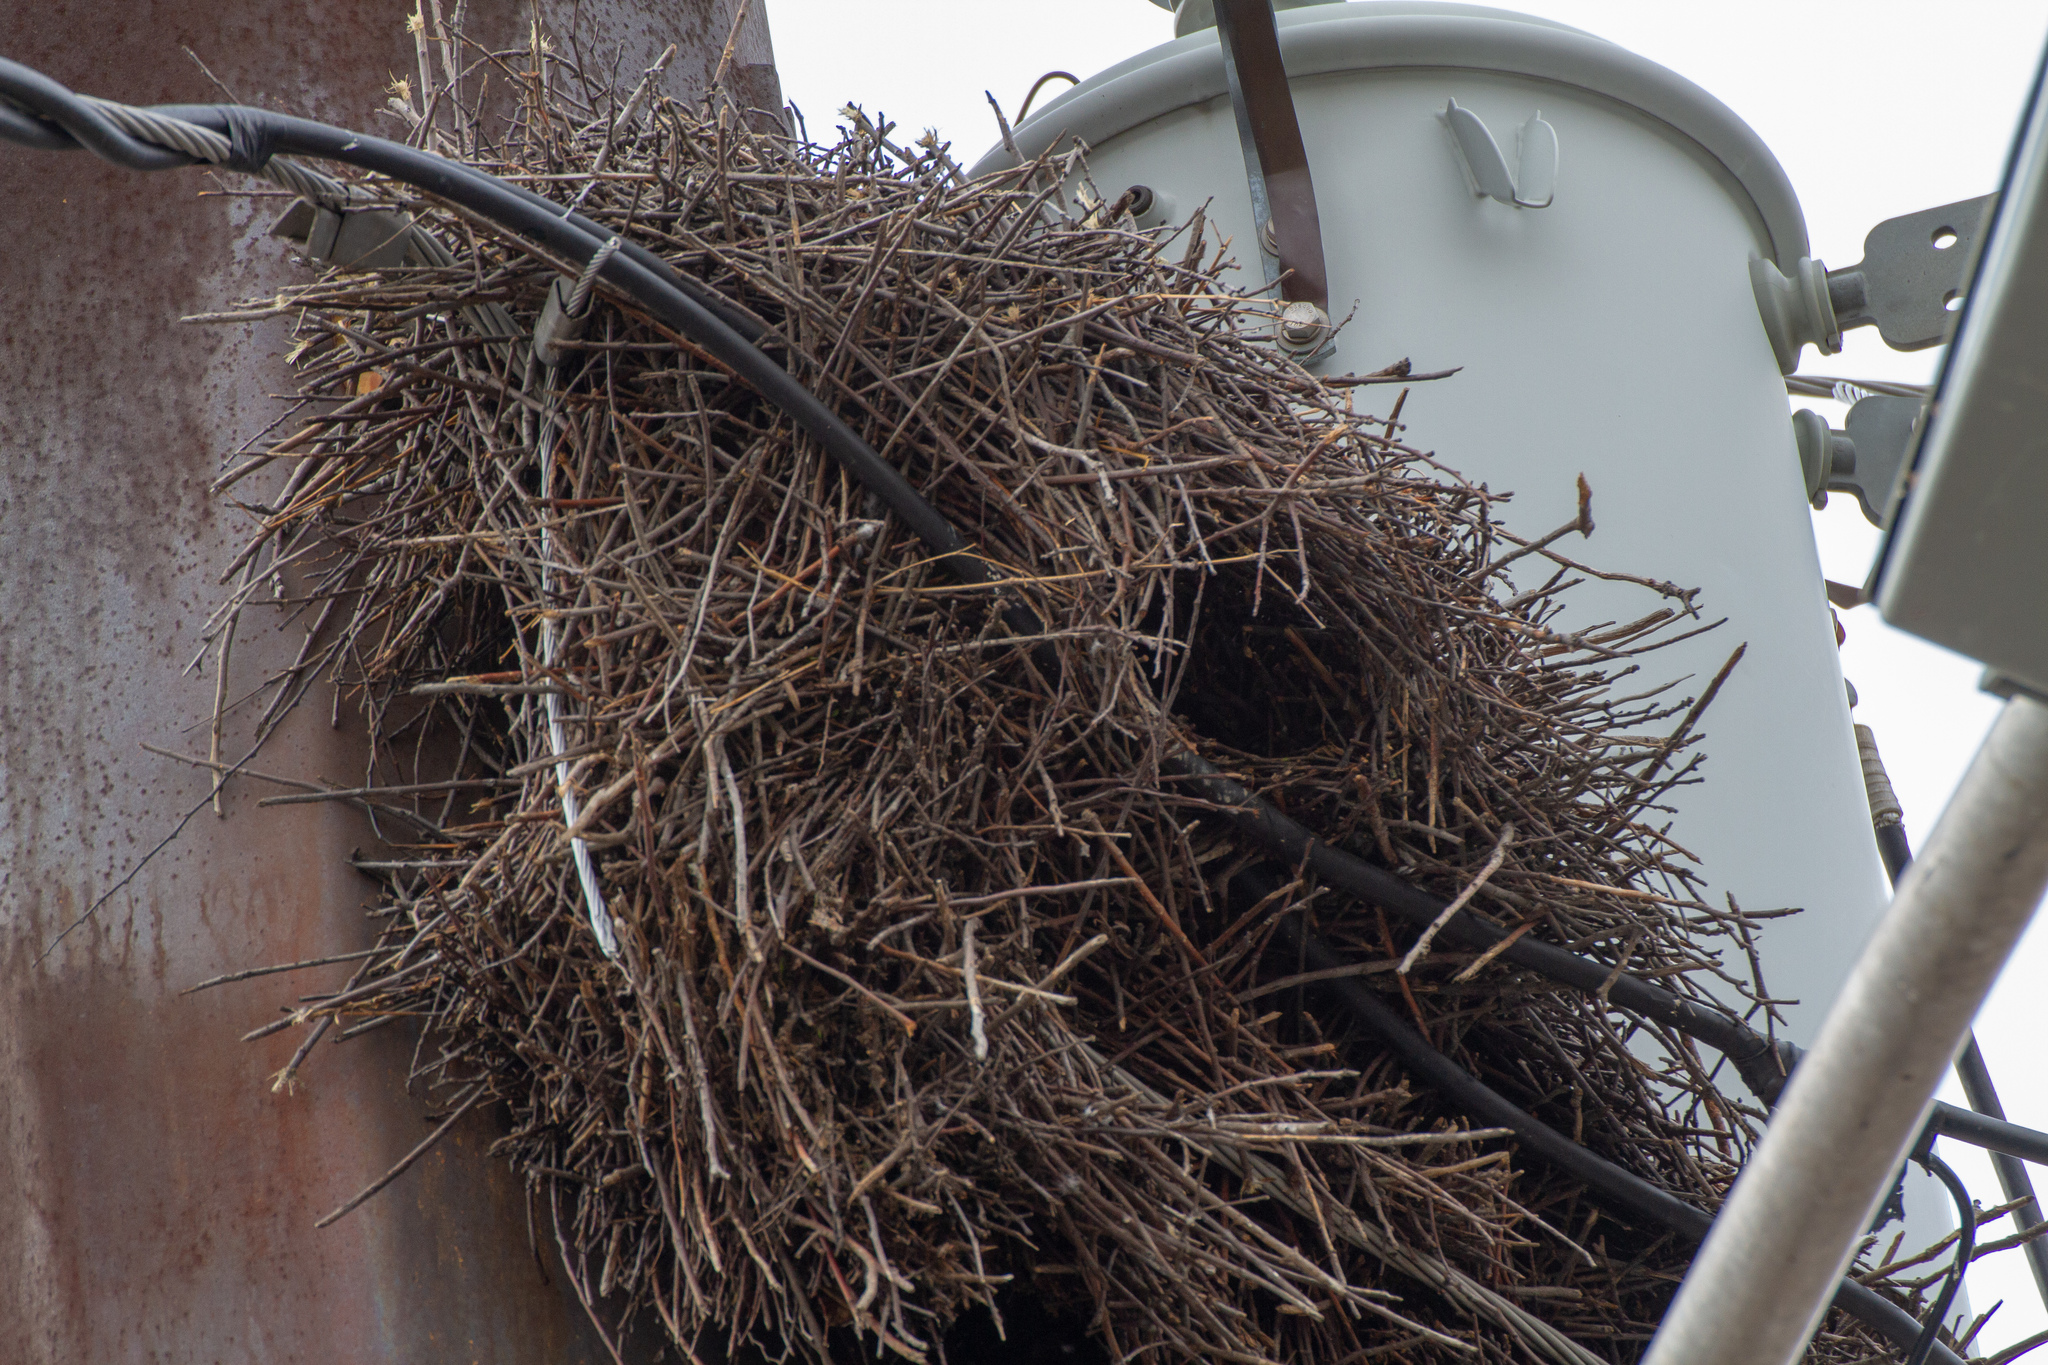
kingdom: Animalia
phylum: Chordata
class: Aves
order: Psittaciformes
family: Psittacidae
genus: Myiopsitta
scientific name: Myiopsitta monachus
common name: Monk parakeet
